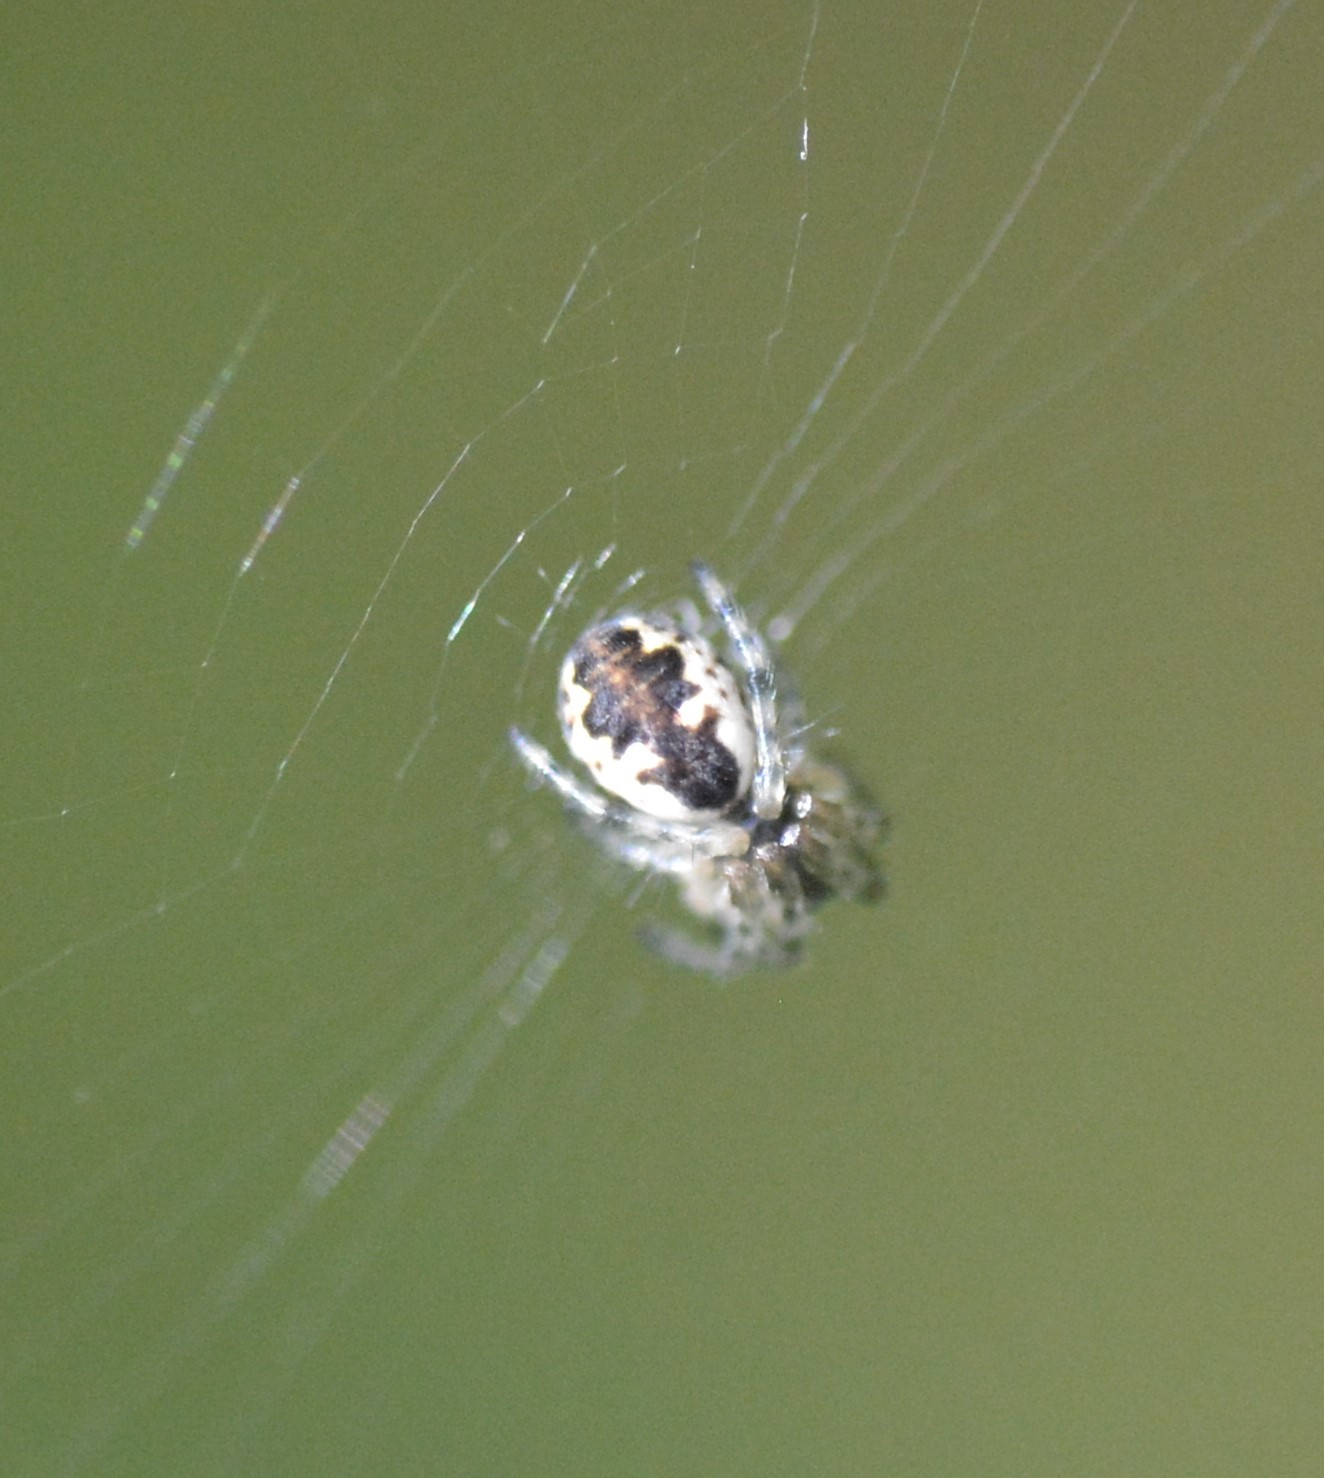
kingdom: Animalia
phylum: Arthropoda
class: Arachnida
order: Araneae
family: Araneidae
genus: Cyclosa
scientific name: Cyclosa conica
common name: Conical trashline orbweaver
